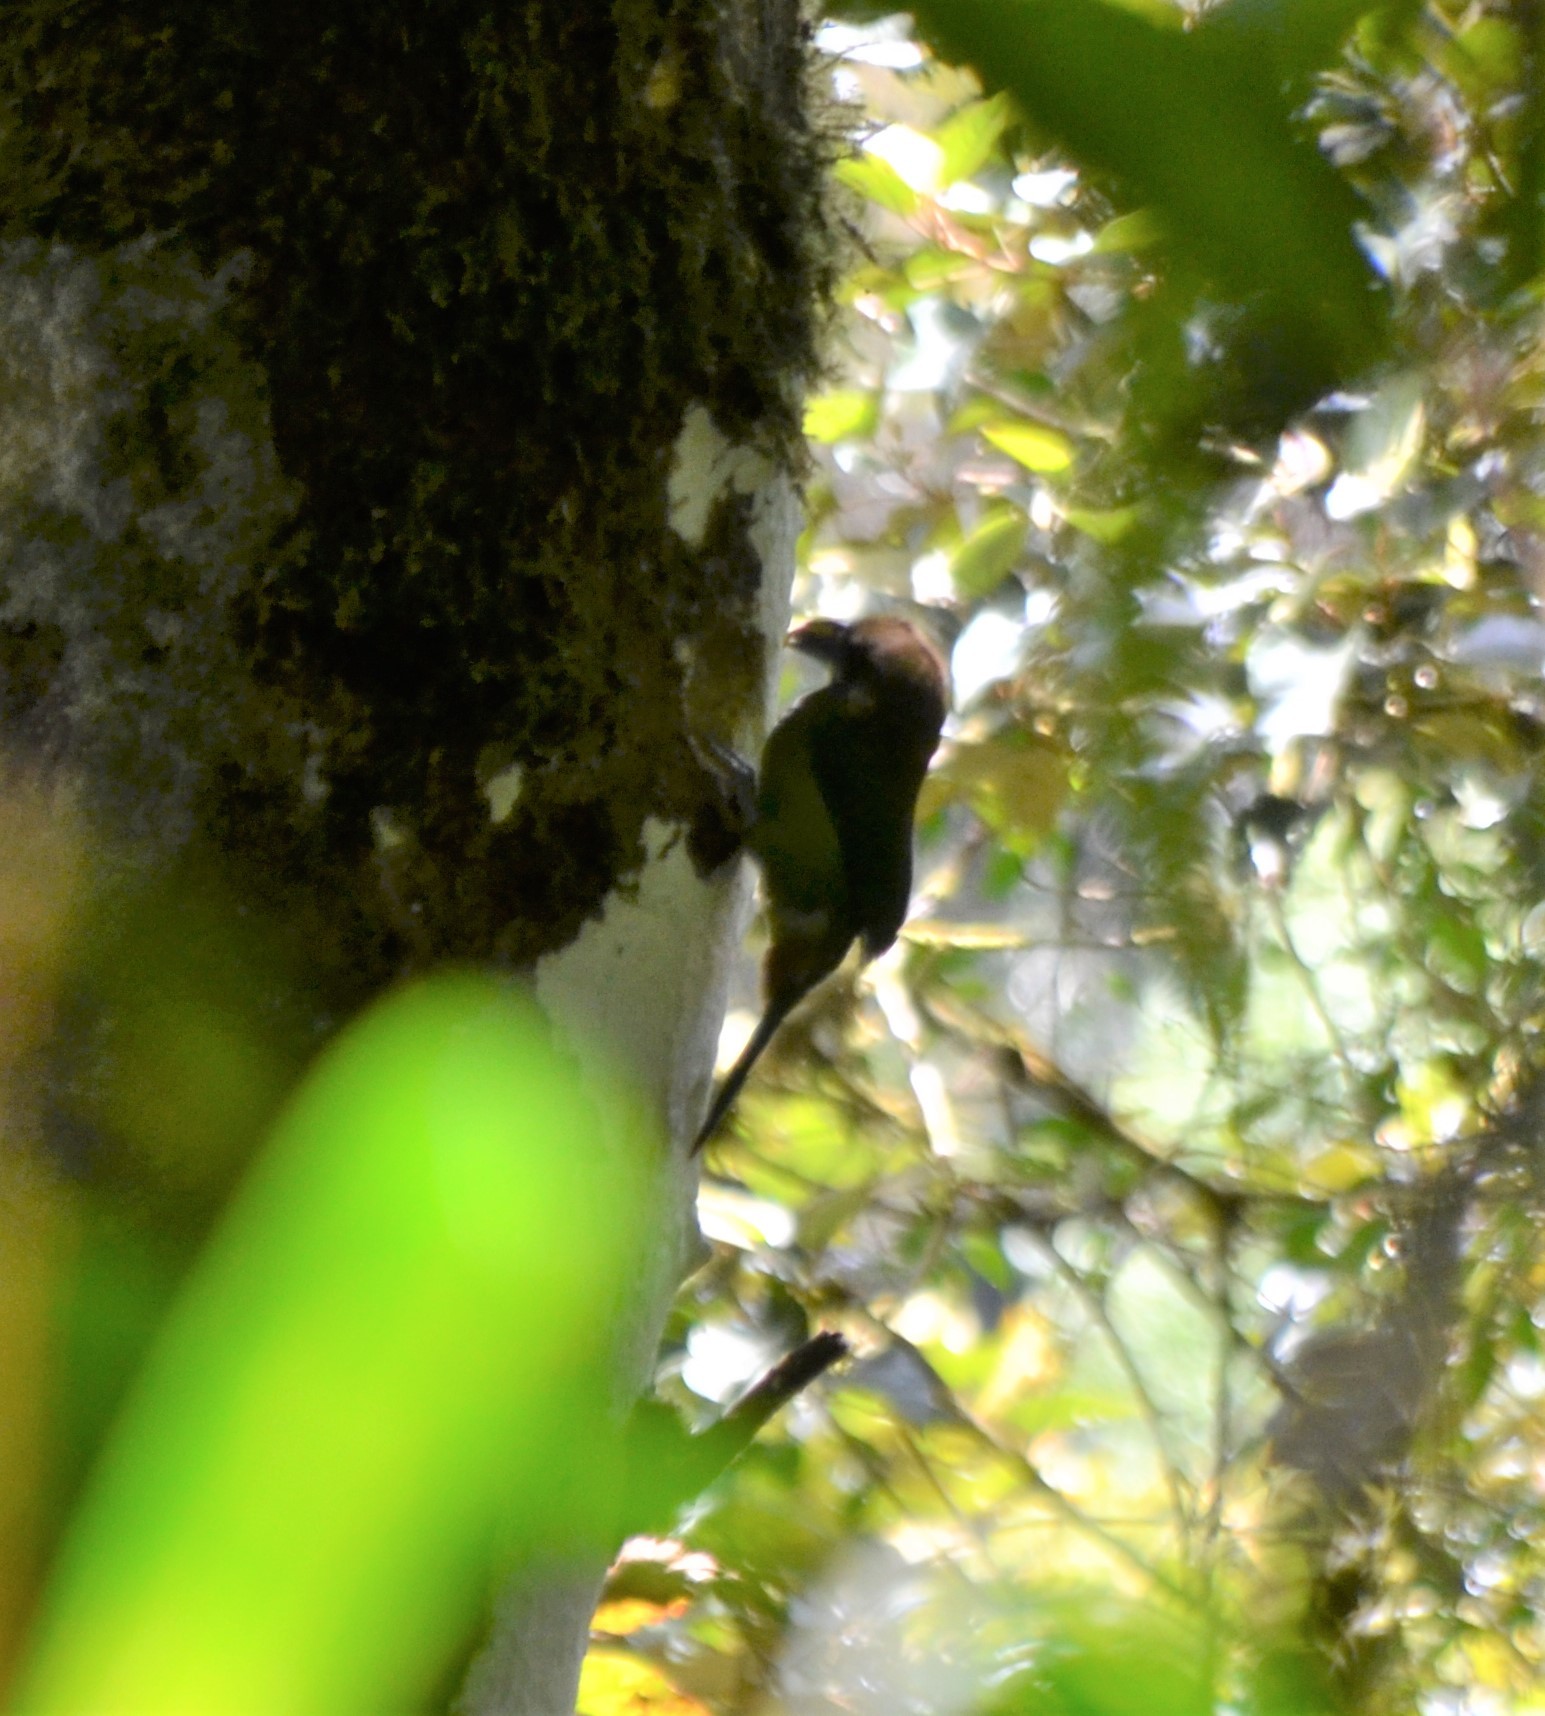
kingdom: Animalia
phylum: Chordata
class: Aves
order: Piciformes
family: Ramphastidae
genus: Aulacorhynchus
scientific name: Aulacorhynchus prasinus
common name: Emerald toucanet
